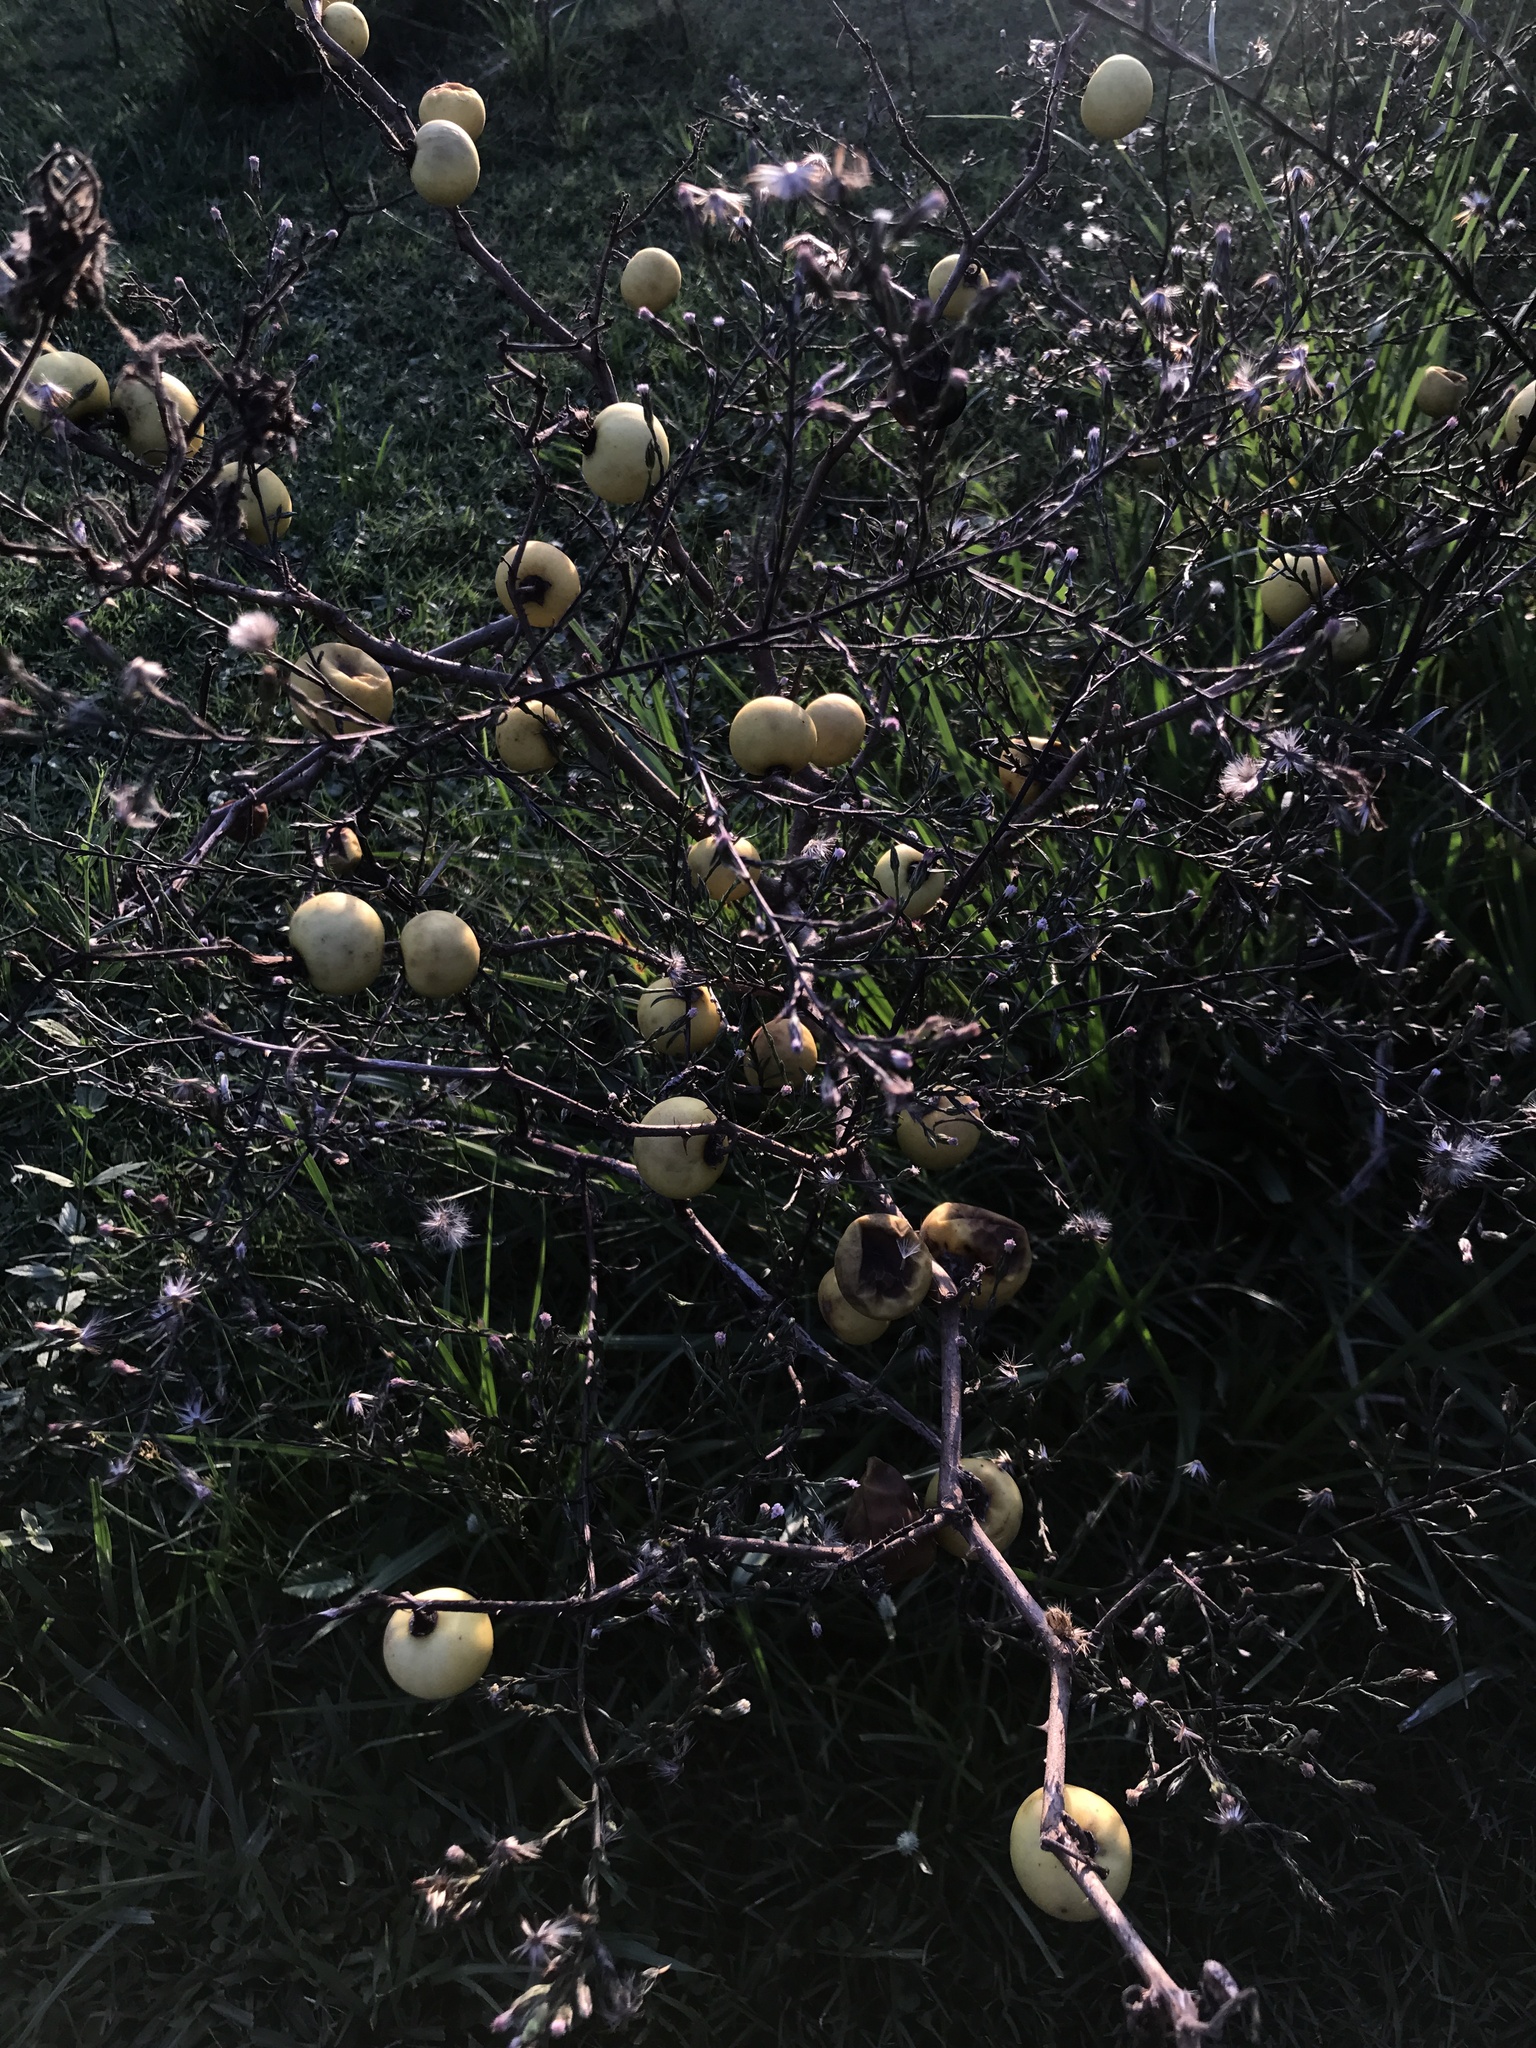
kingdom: Plantae
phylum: Tracheophyta
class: Magnoliopsida
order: Solanales
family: Solanaceae
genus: Solanum
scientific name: Solanum palinacanthum
